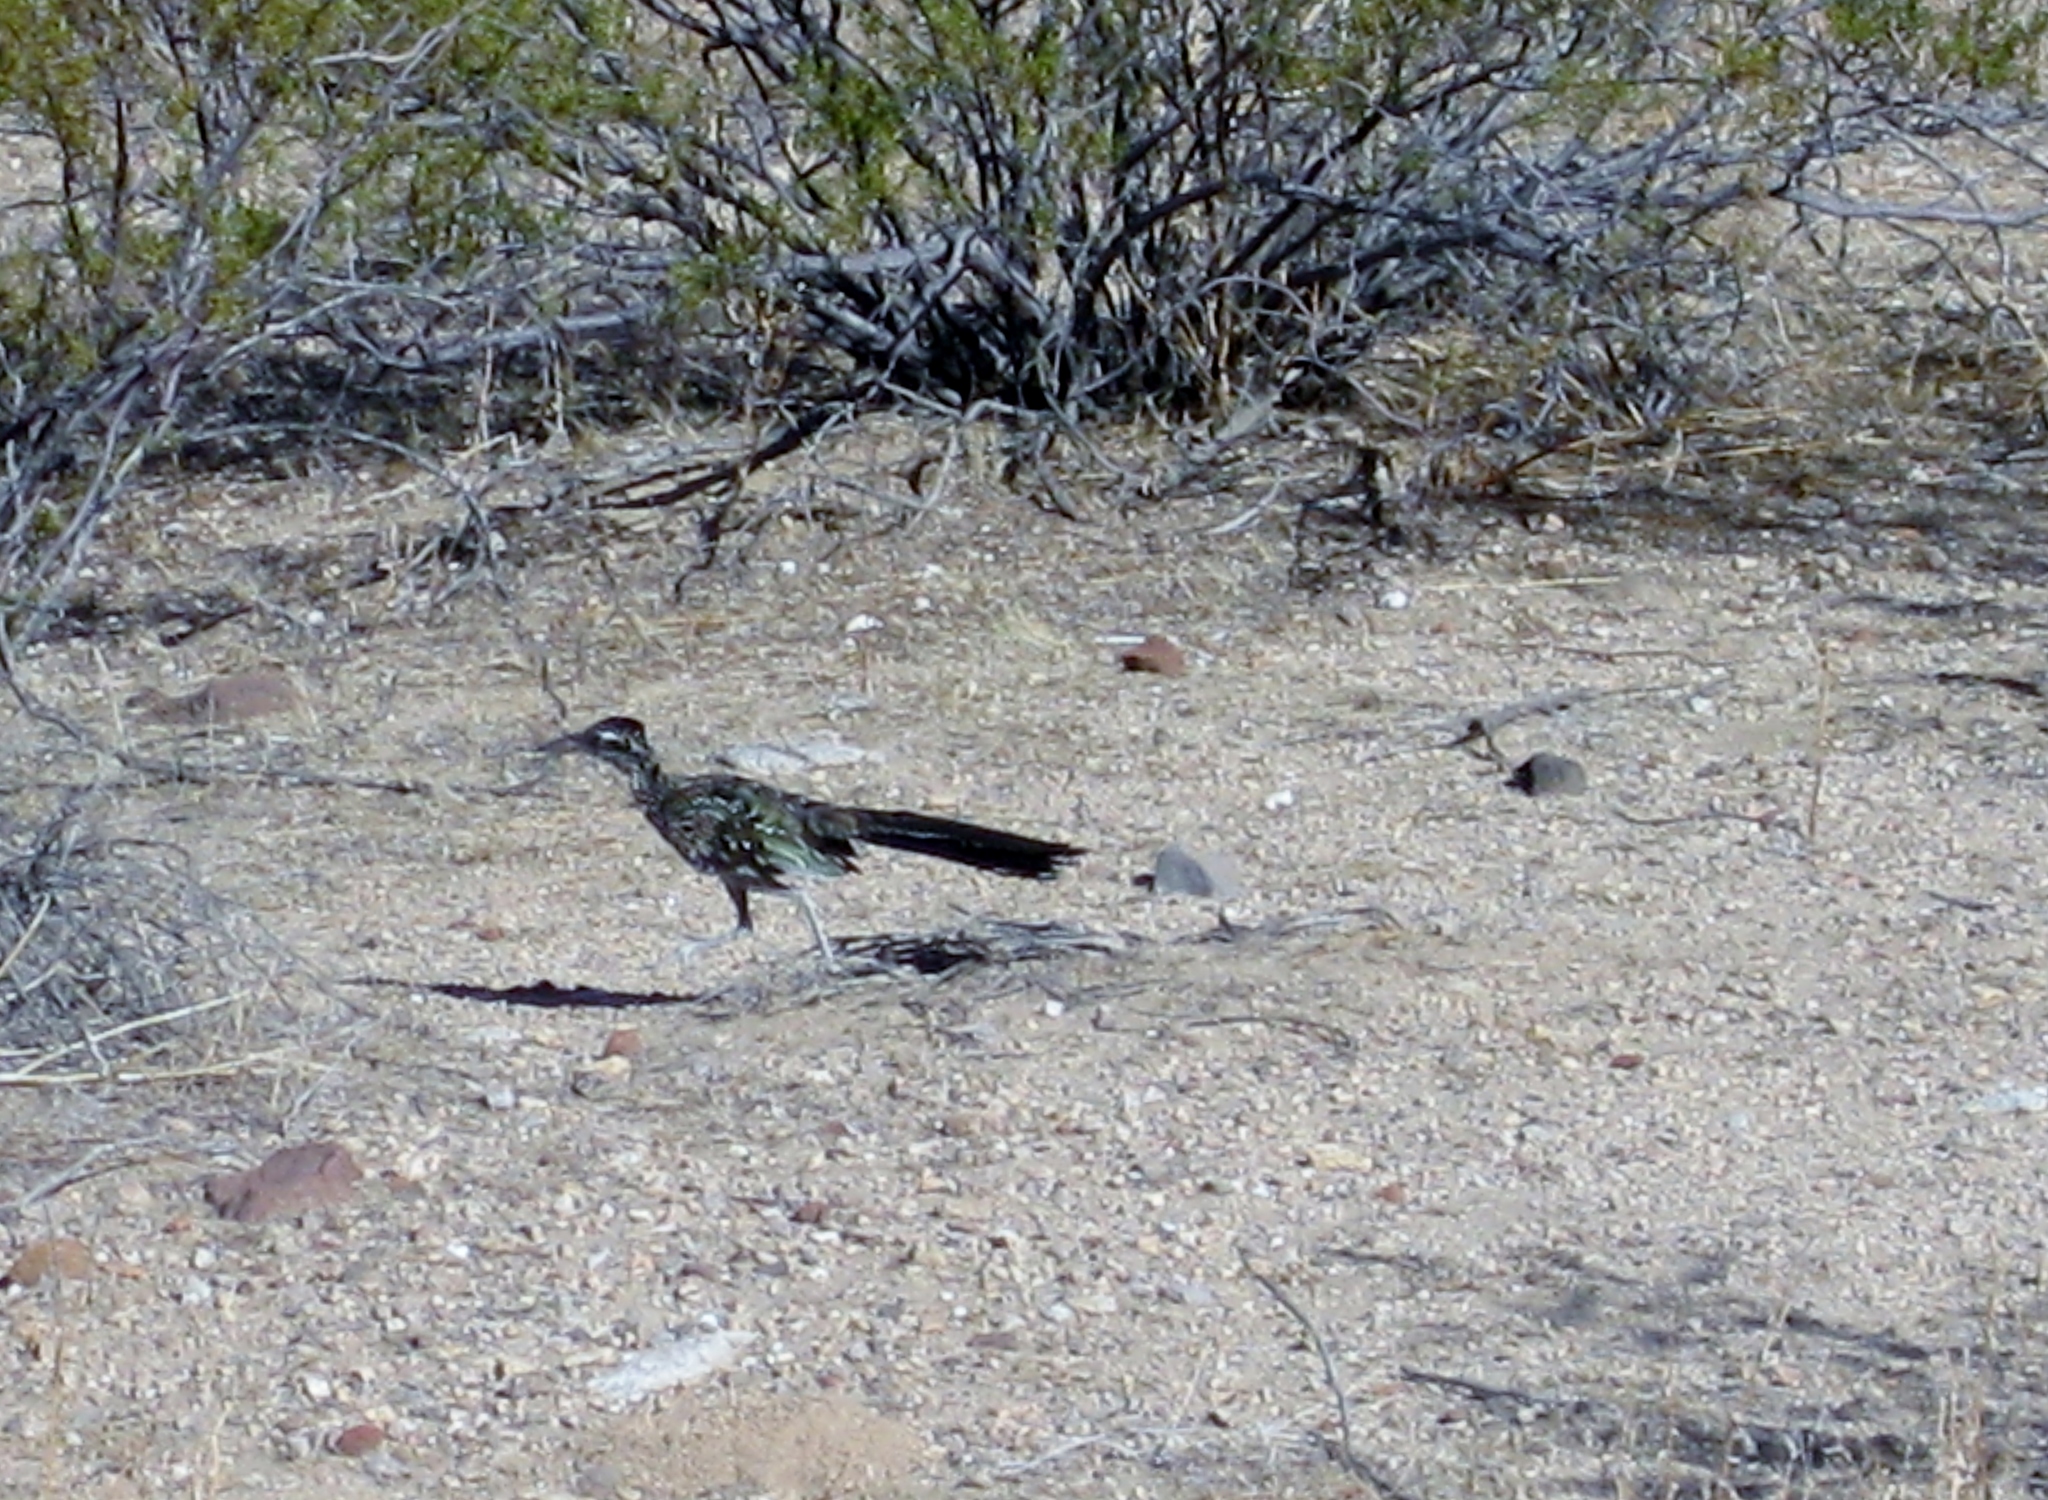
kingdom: Animalia
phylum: Chordata
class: Aves
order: Cuculiformes
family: Cuculidae
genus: Geococcyx
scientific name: Geococcyx californianus
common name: Greater roadrunner
